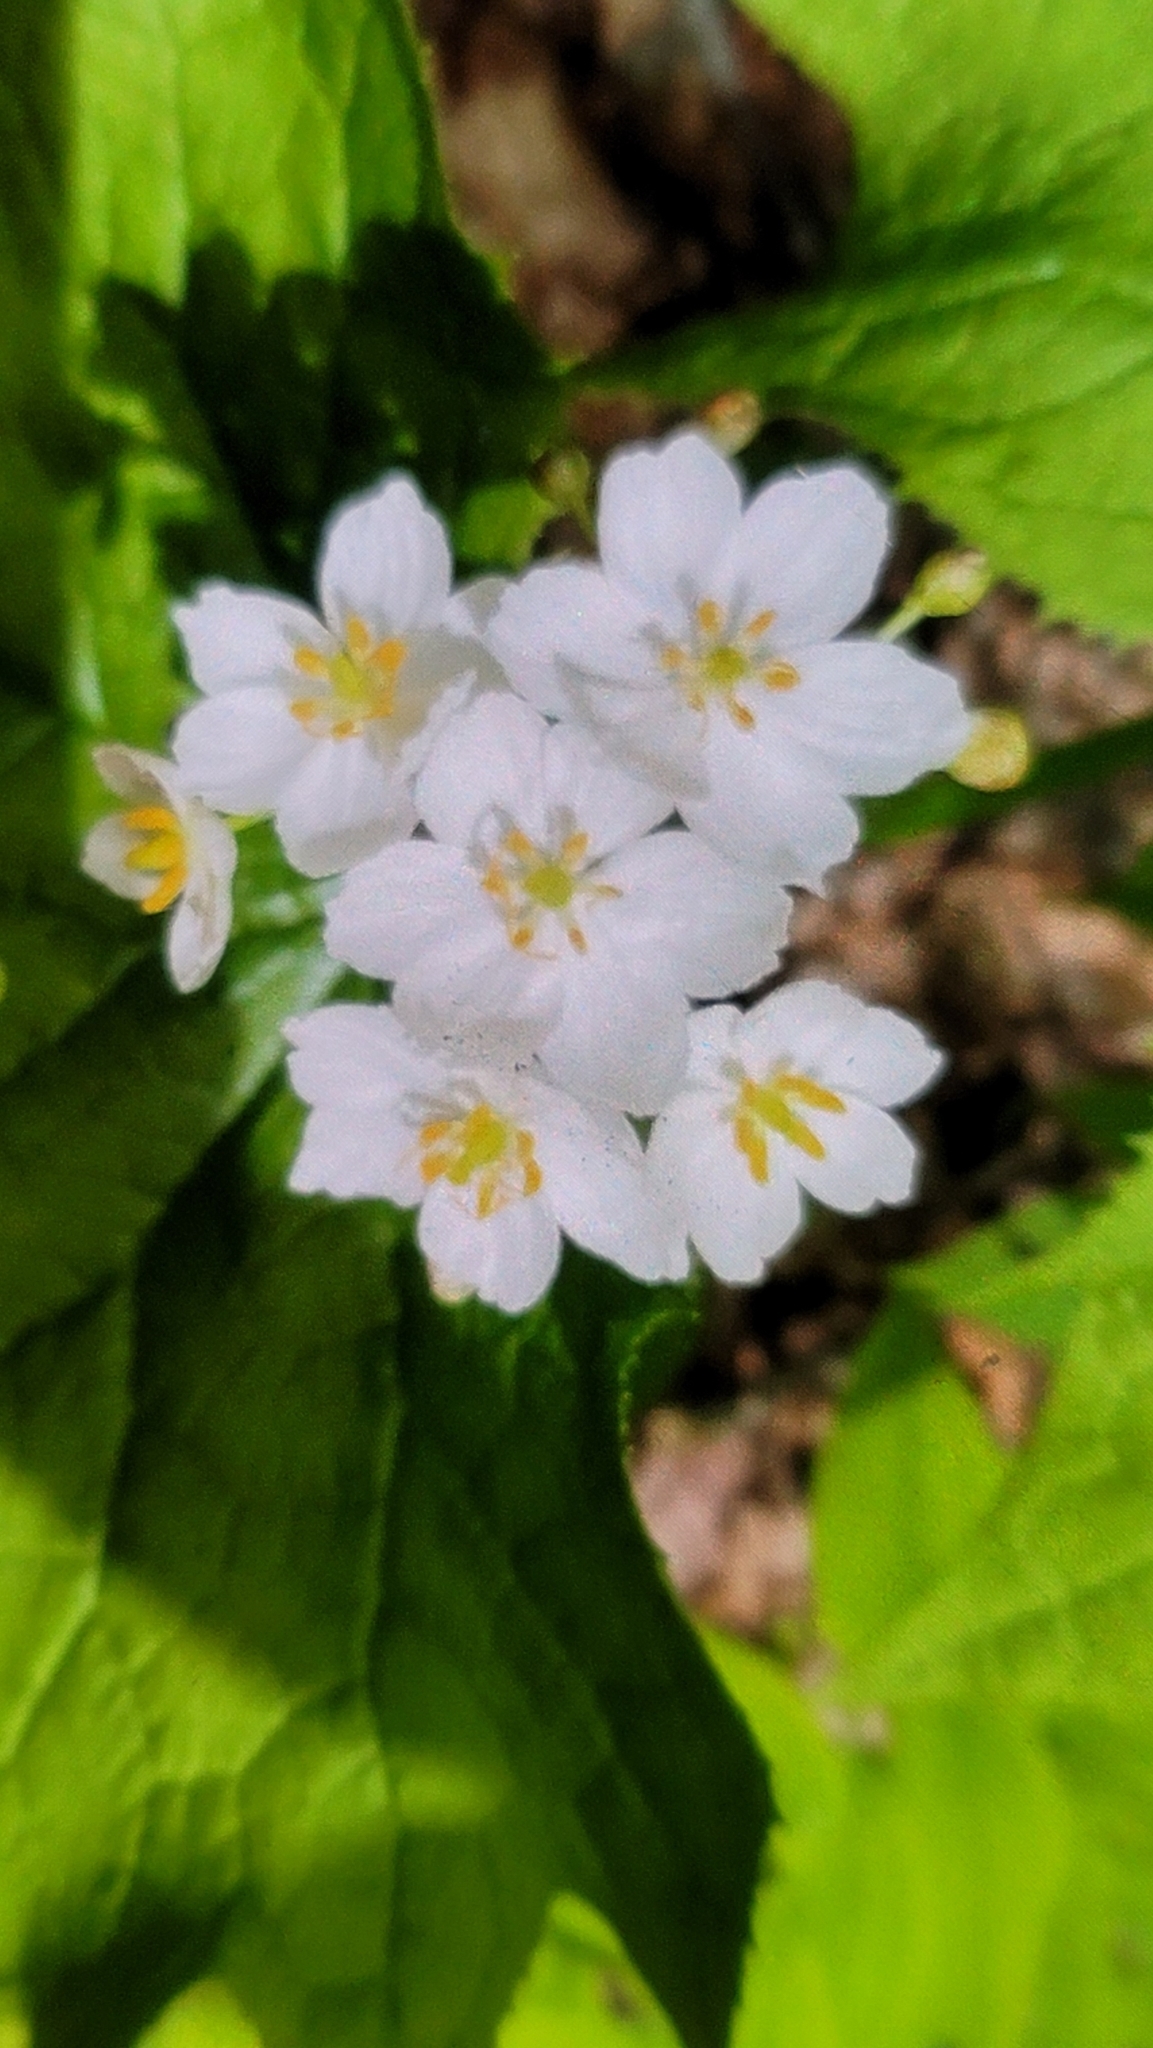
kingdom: Plantae
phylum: Tracheophyta
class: Magnoliopsida
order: Ranunculales
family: Berberidaceae
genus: Diphylleia
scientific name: Diphylleia cymosa
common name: Umbrella-leaf
